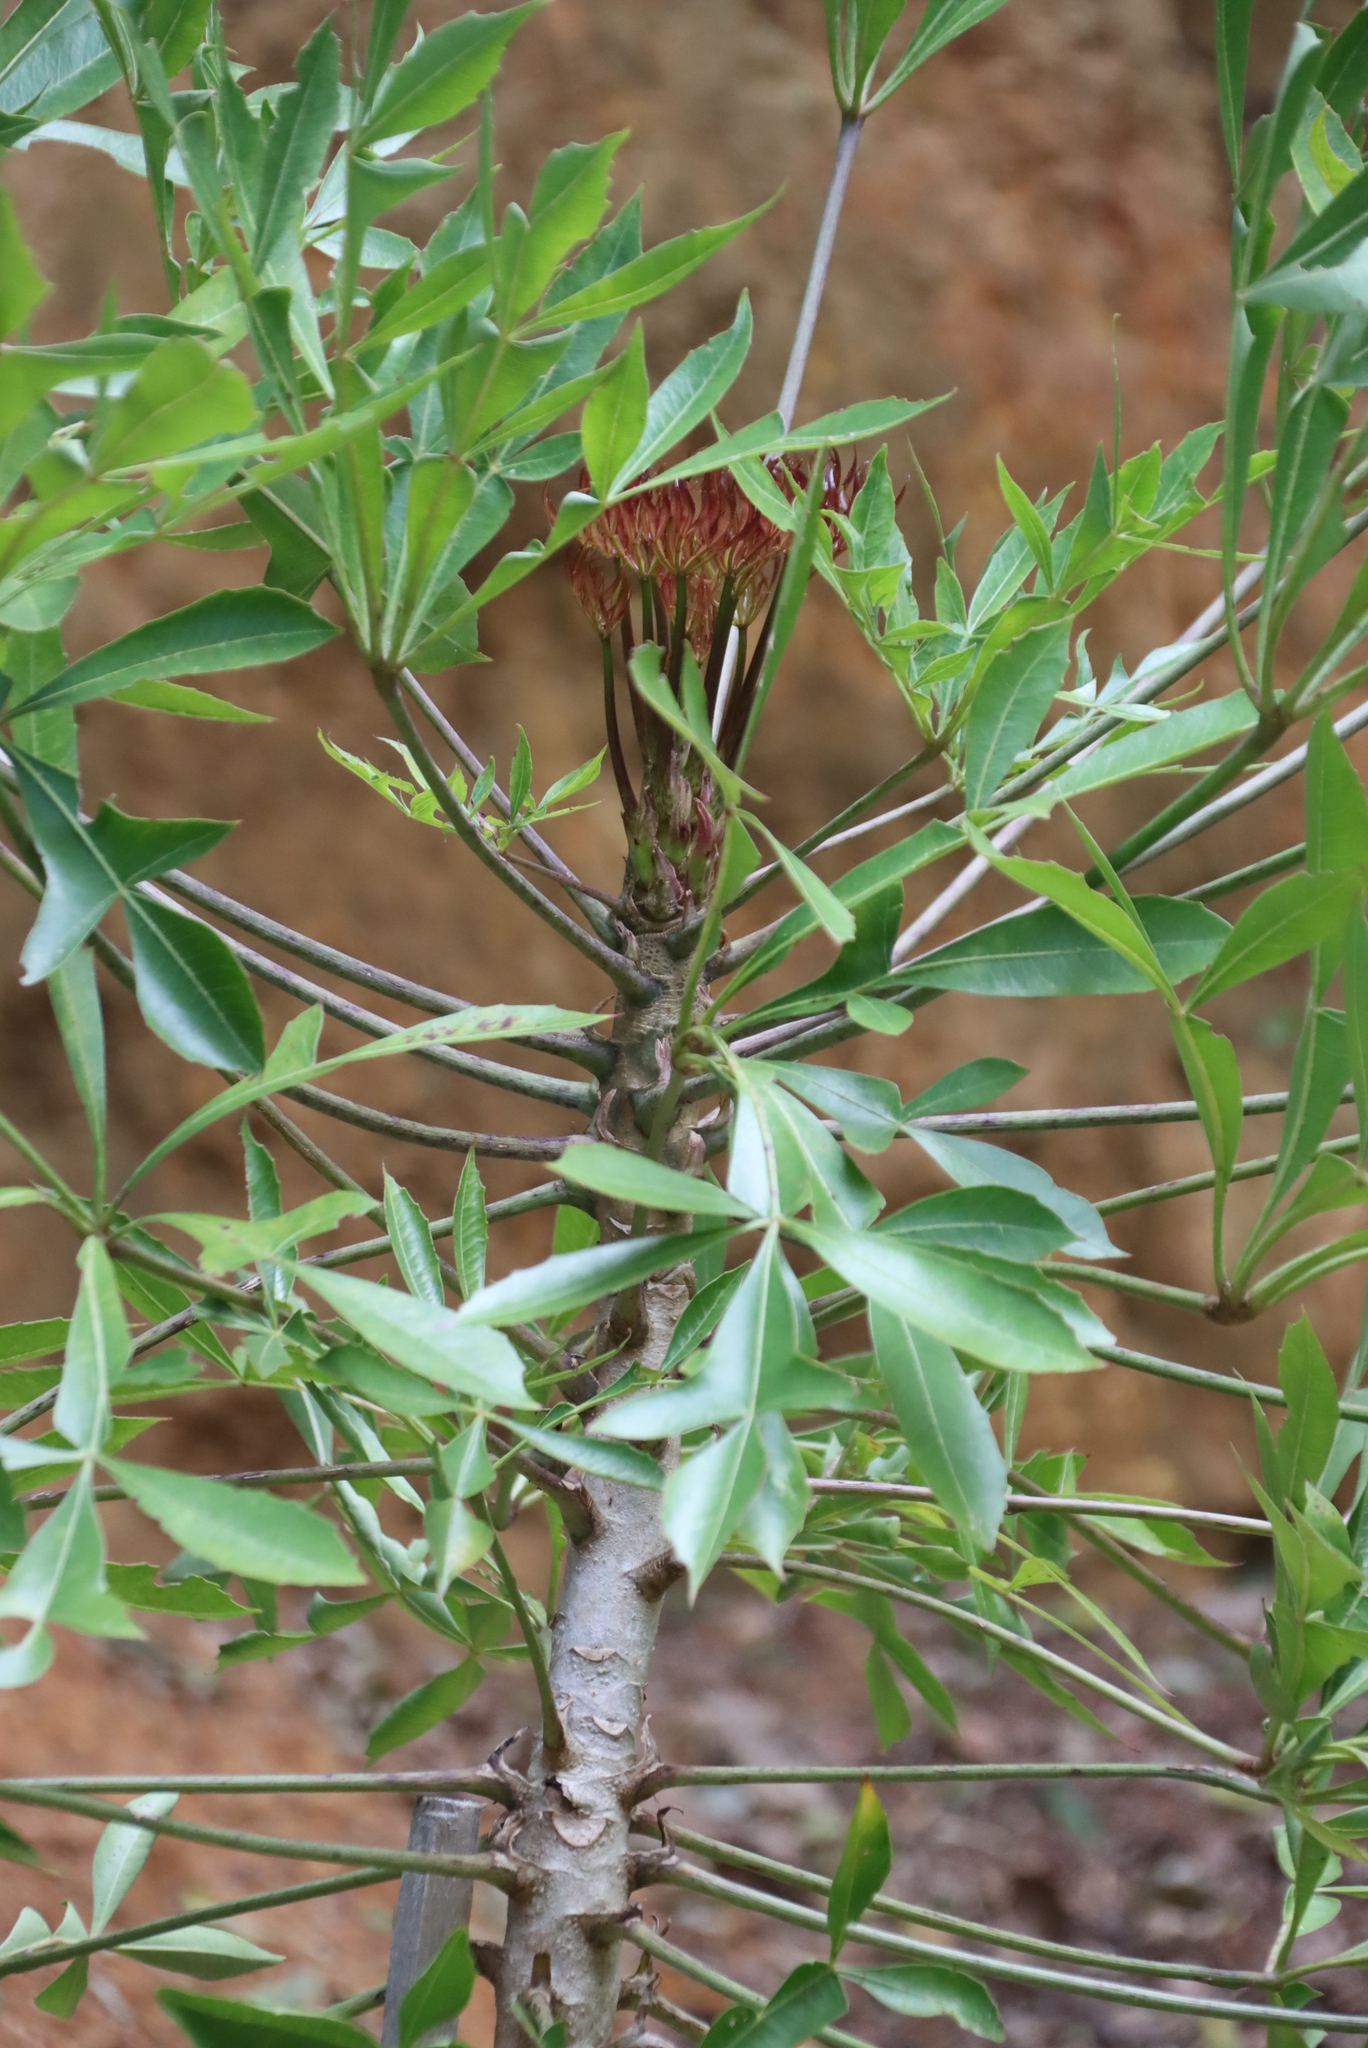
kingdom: Plantae
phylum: Tracheophyta
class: Magnoliopsida
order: Apiales
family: Araliaceae
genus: Cussonia
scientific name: Cussonia spicata
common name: Common cabbagetree
